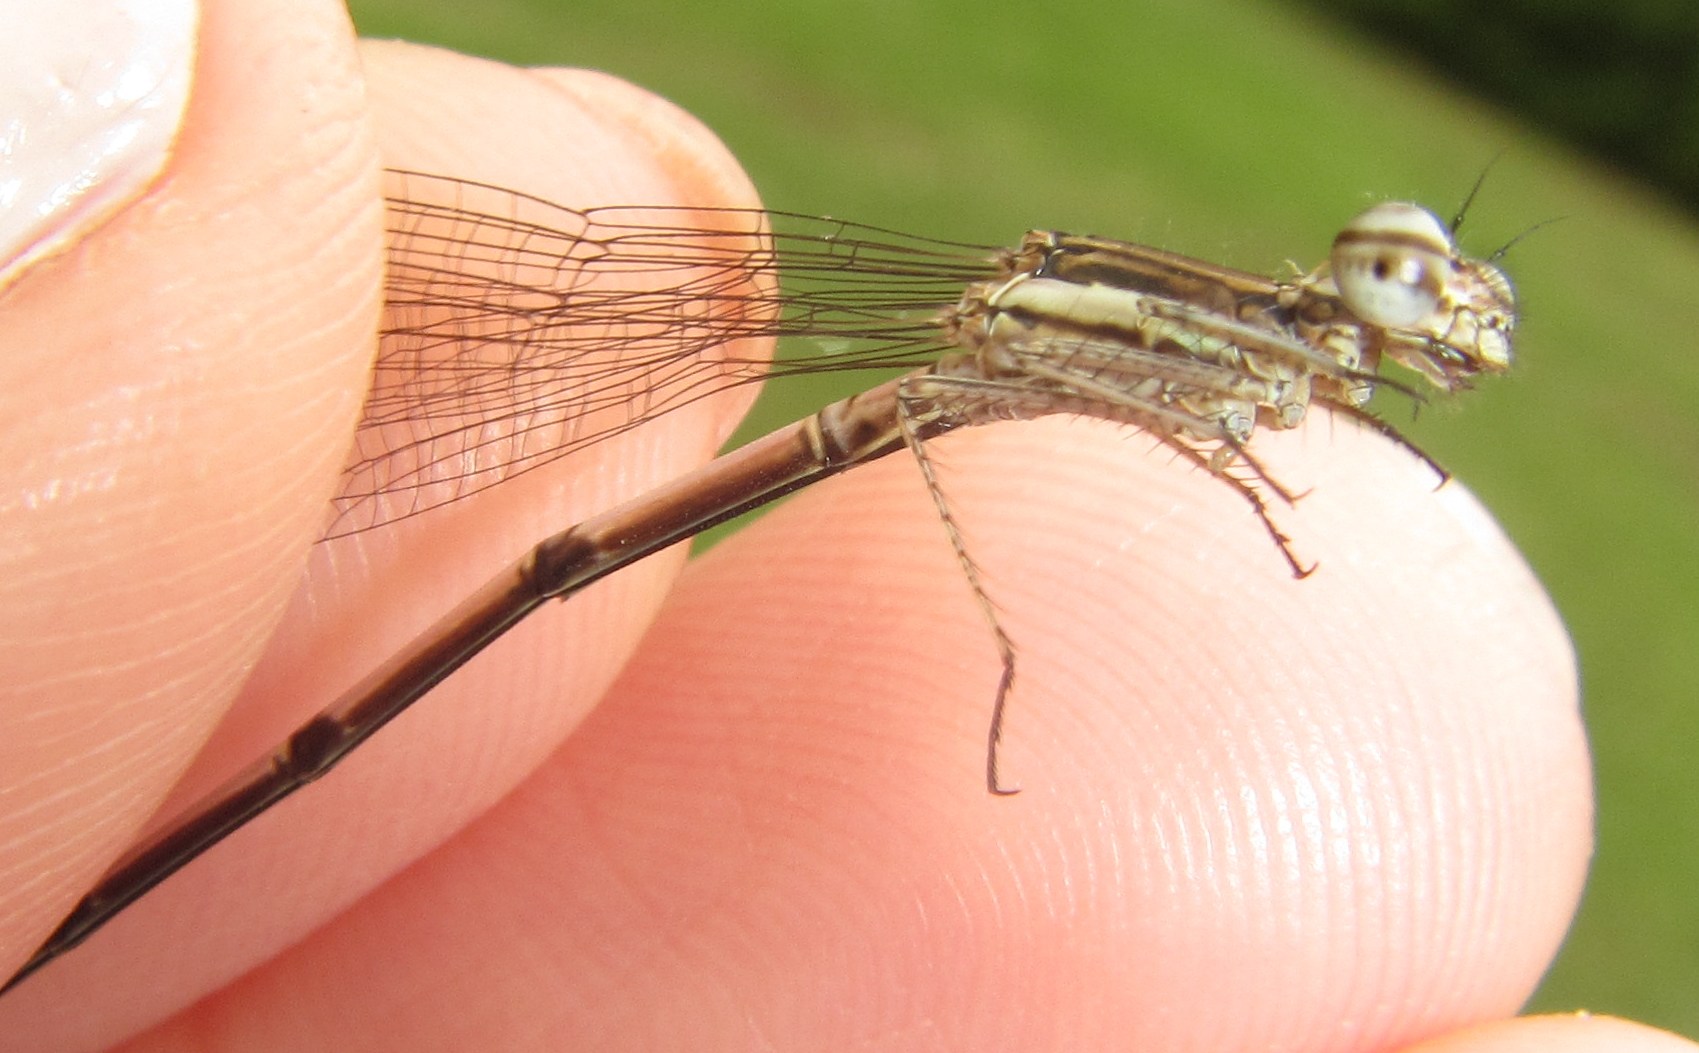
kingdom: Animalia
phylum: Arthropoda
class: Insecta
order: Odonata
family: Platycnemididae
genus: Elattoneura
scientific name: Elattoneura glauca
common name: Common threadtail
